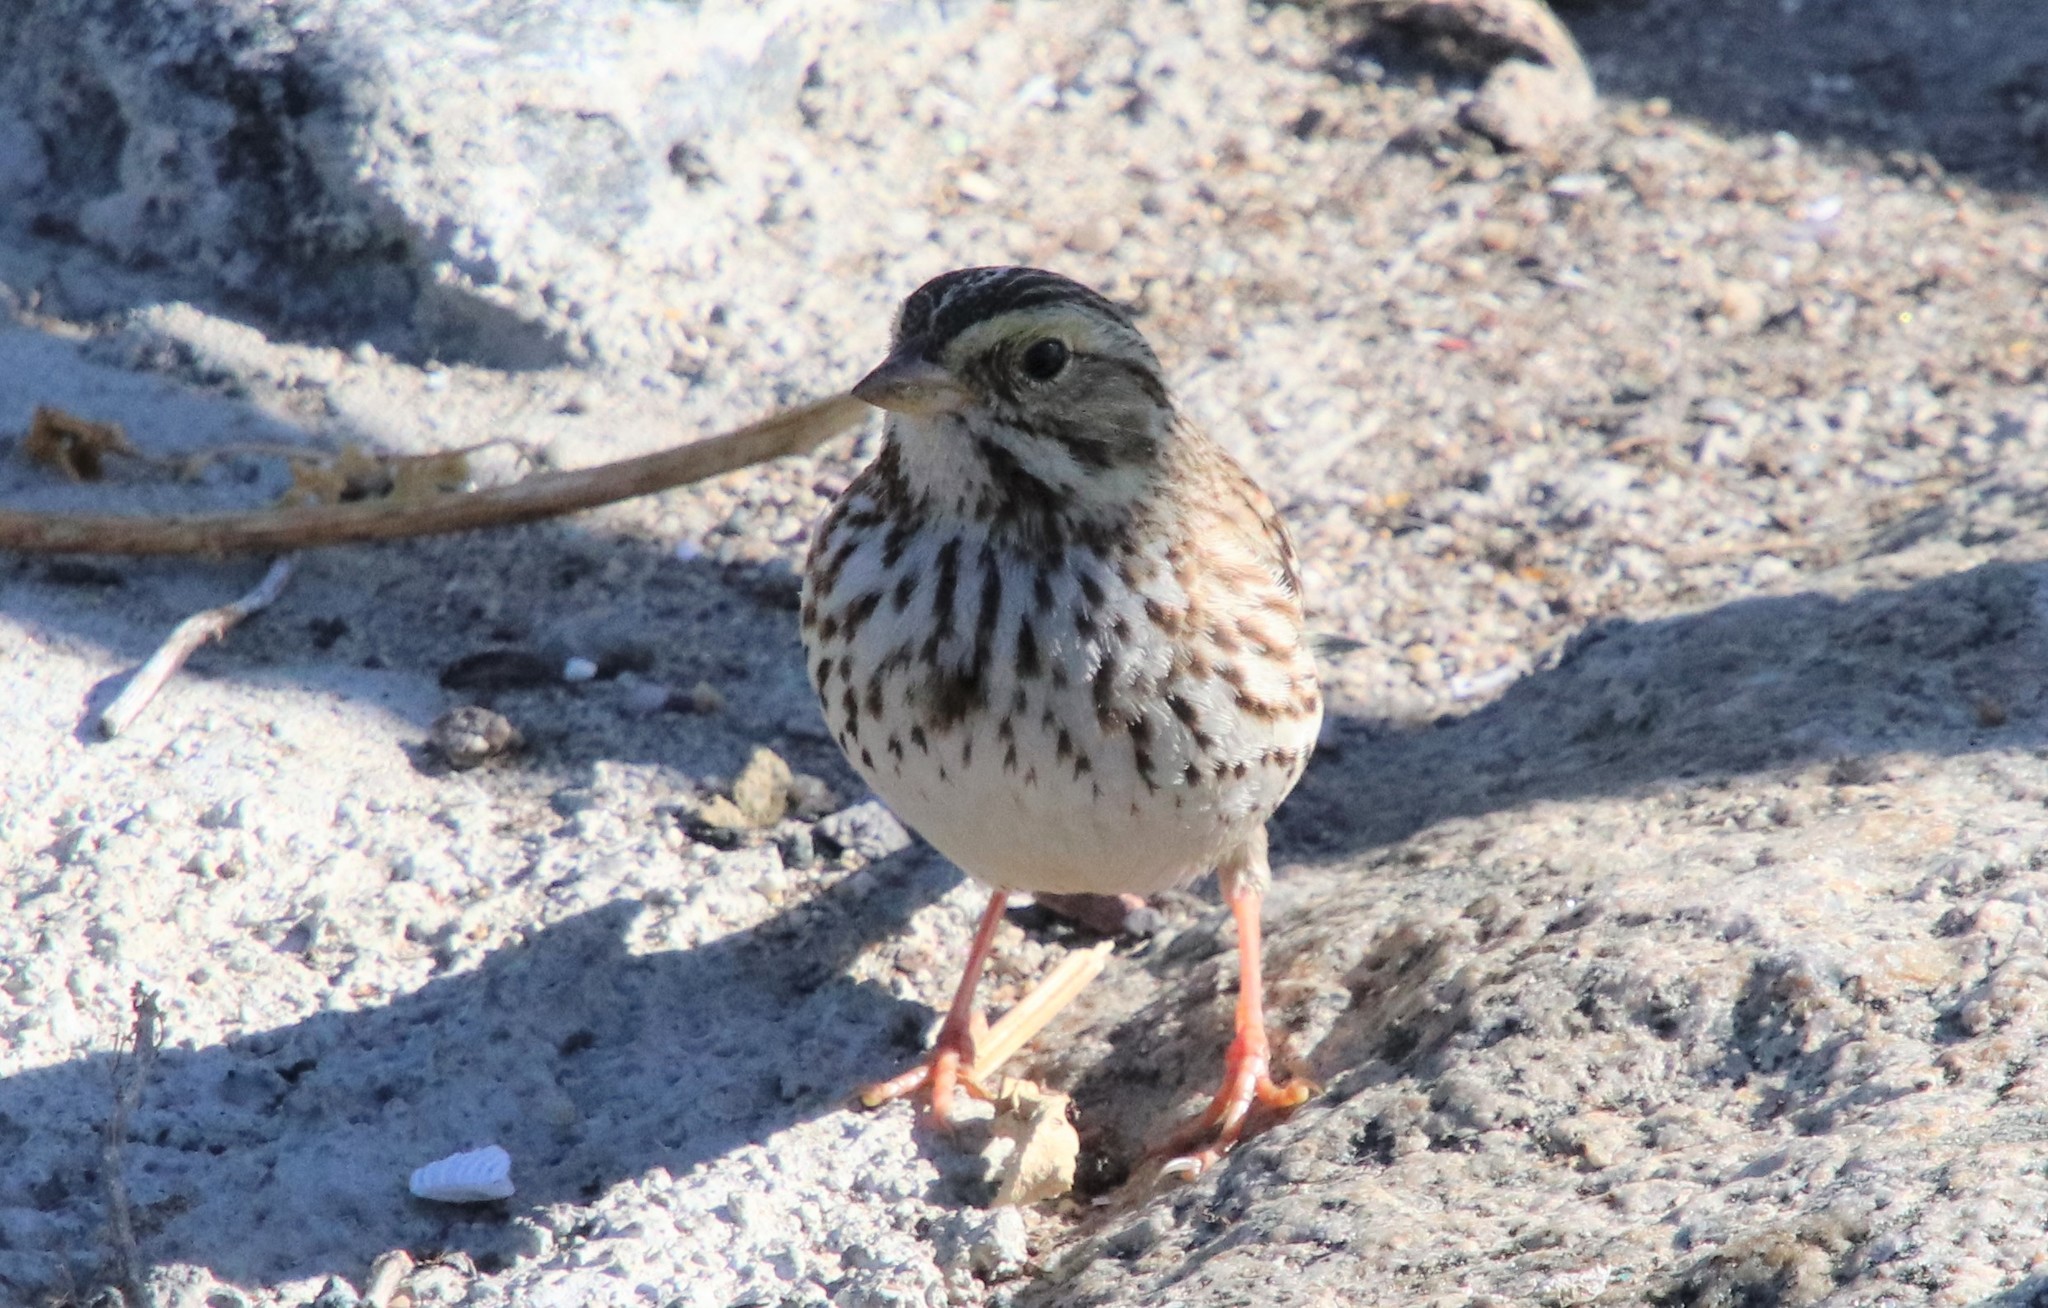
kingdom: Animalia
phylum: Chordata
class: Aves
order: Passeriformes
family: Passerellidae
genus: Passerculus
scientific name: Passerculus sandwichensis
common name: Savannah sparrow
